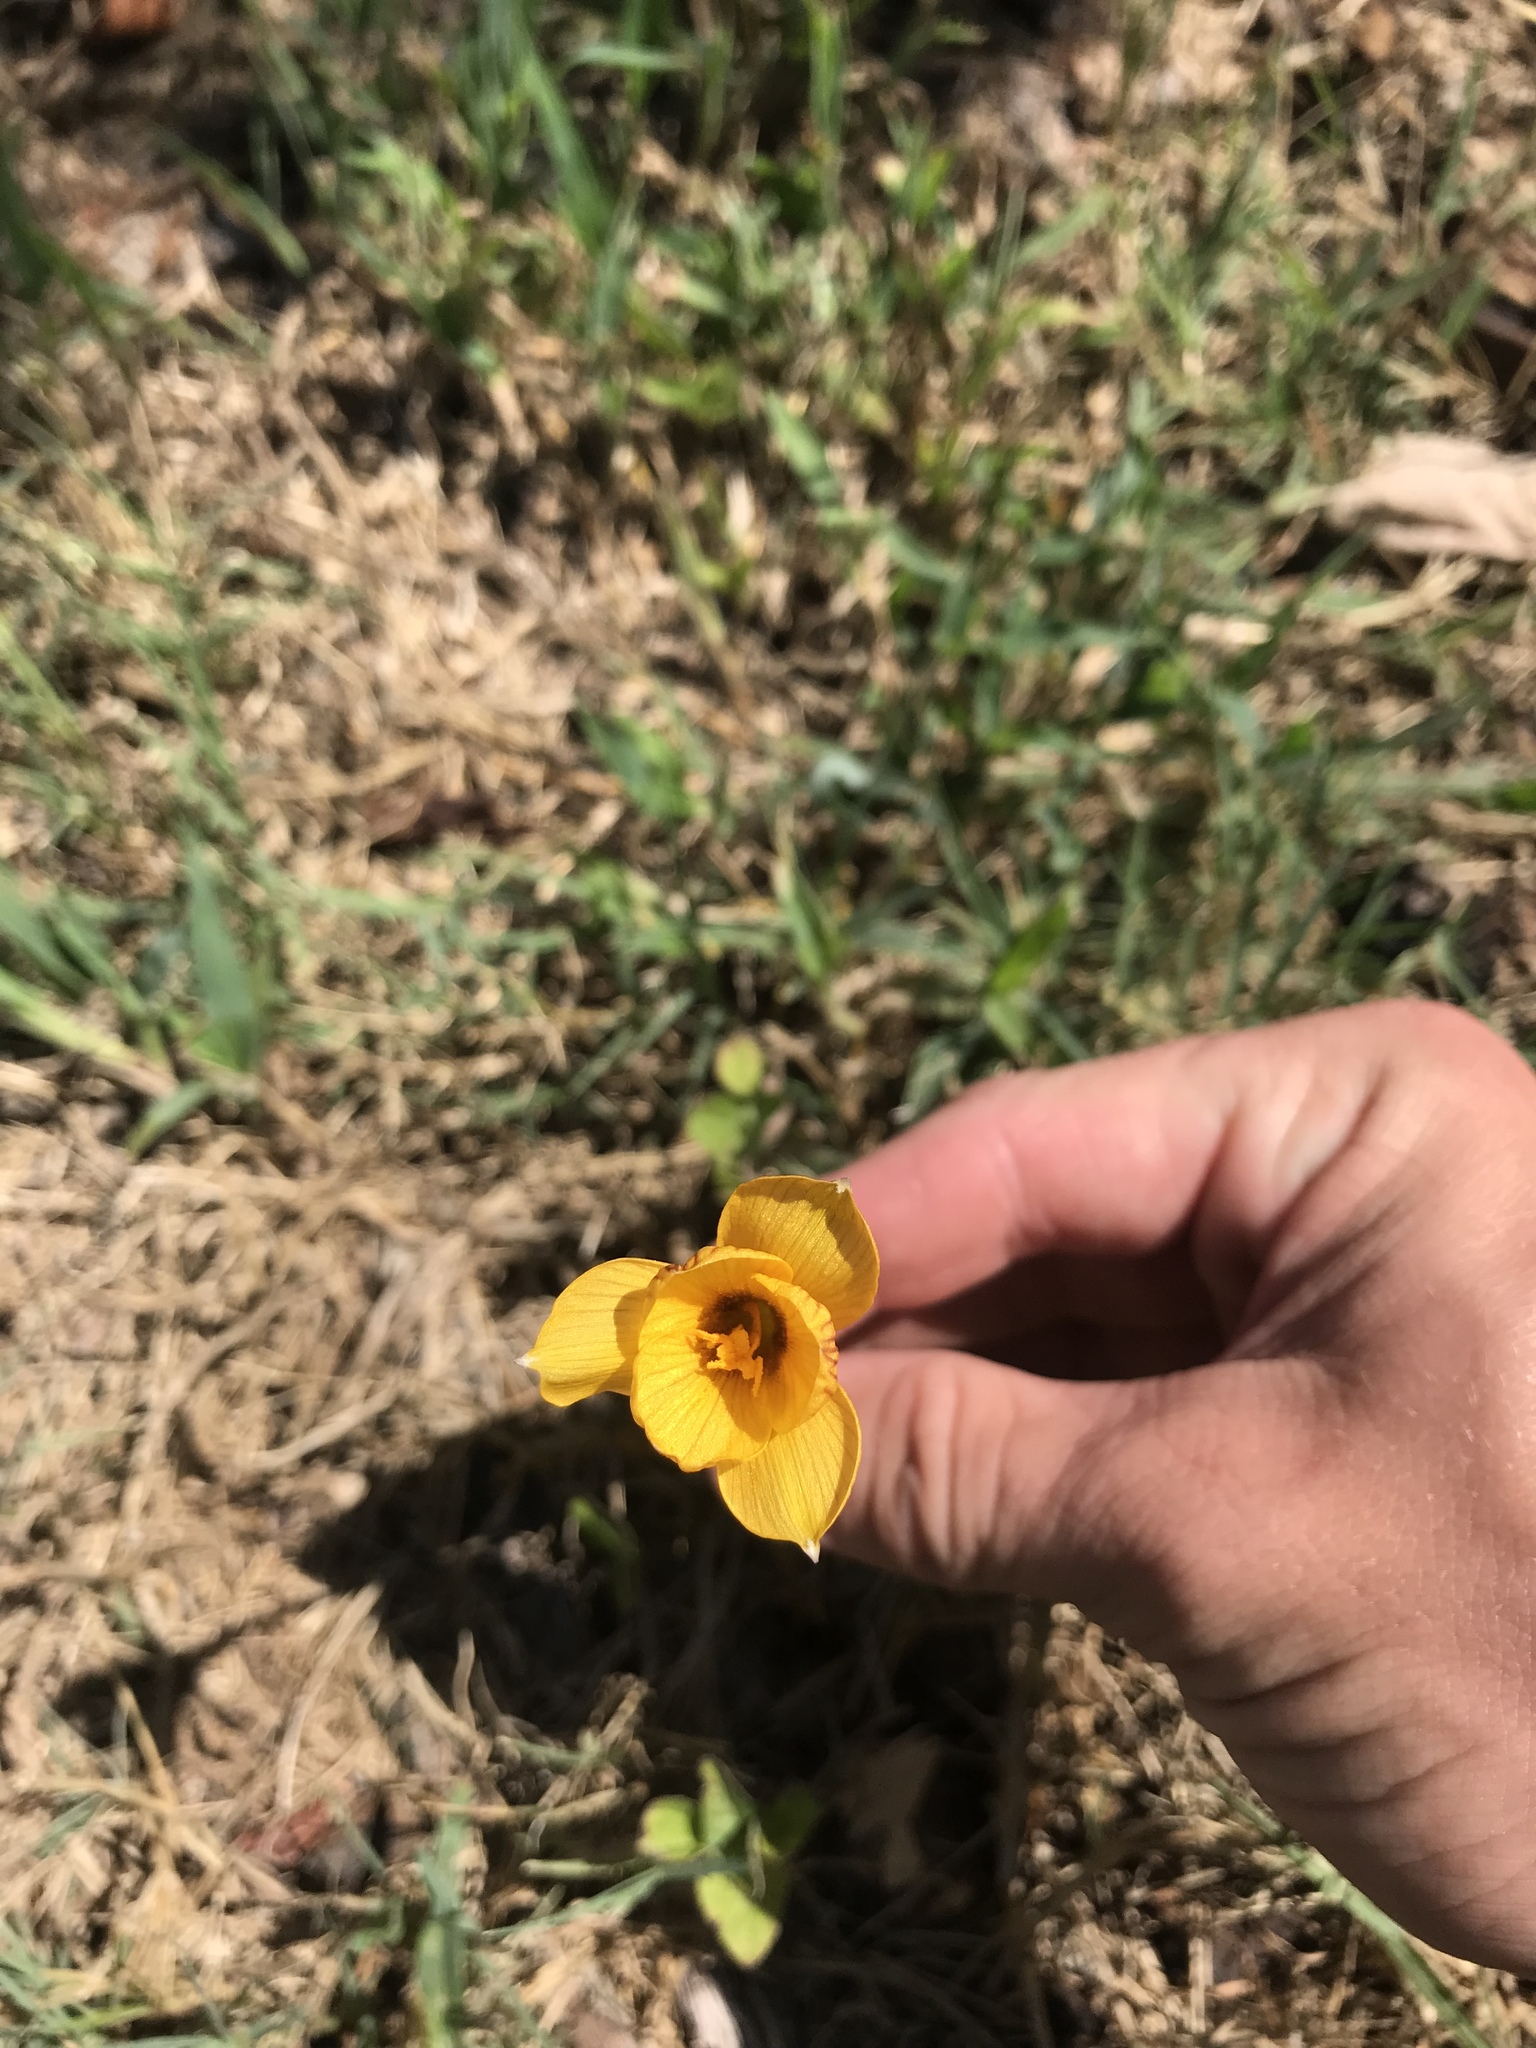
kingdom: Plantae
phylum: Tracheophyta
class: Liliopsida
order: Asparagales
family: Amaryllidaceae
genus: Zephyranthes
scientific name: Zephyranthes tubispatha
